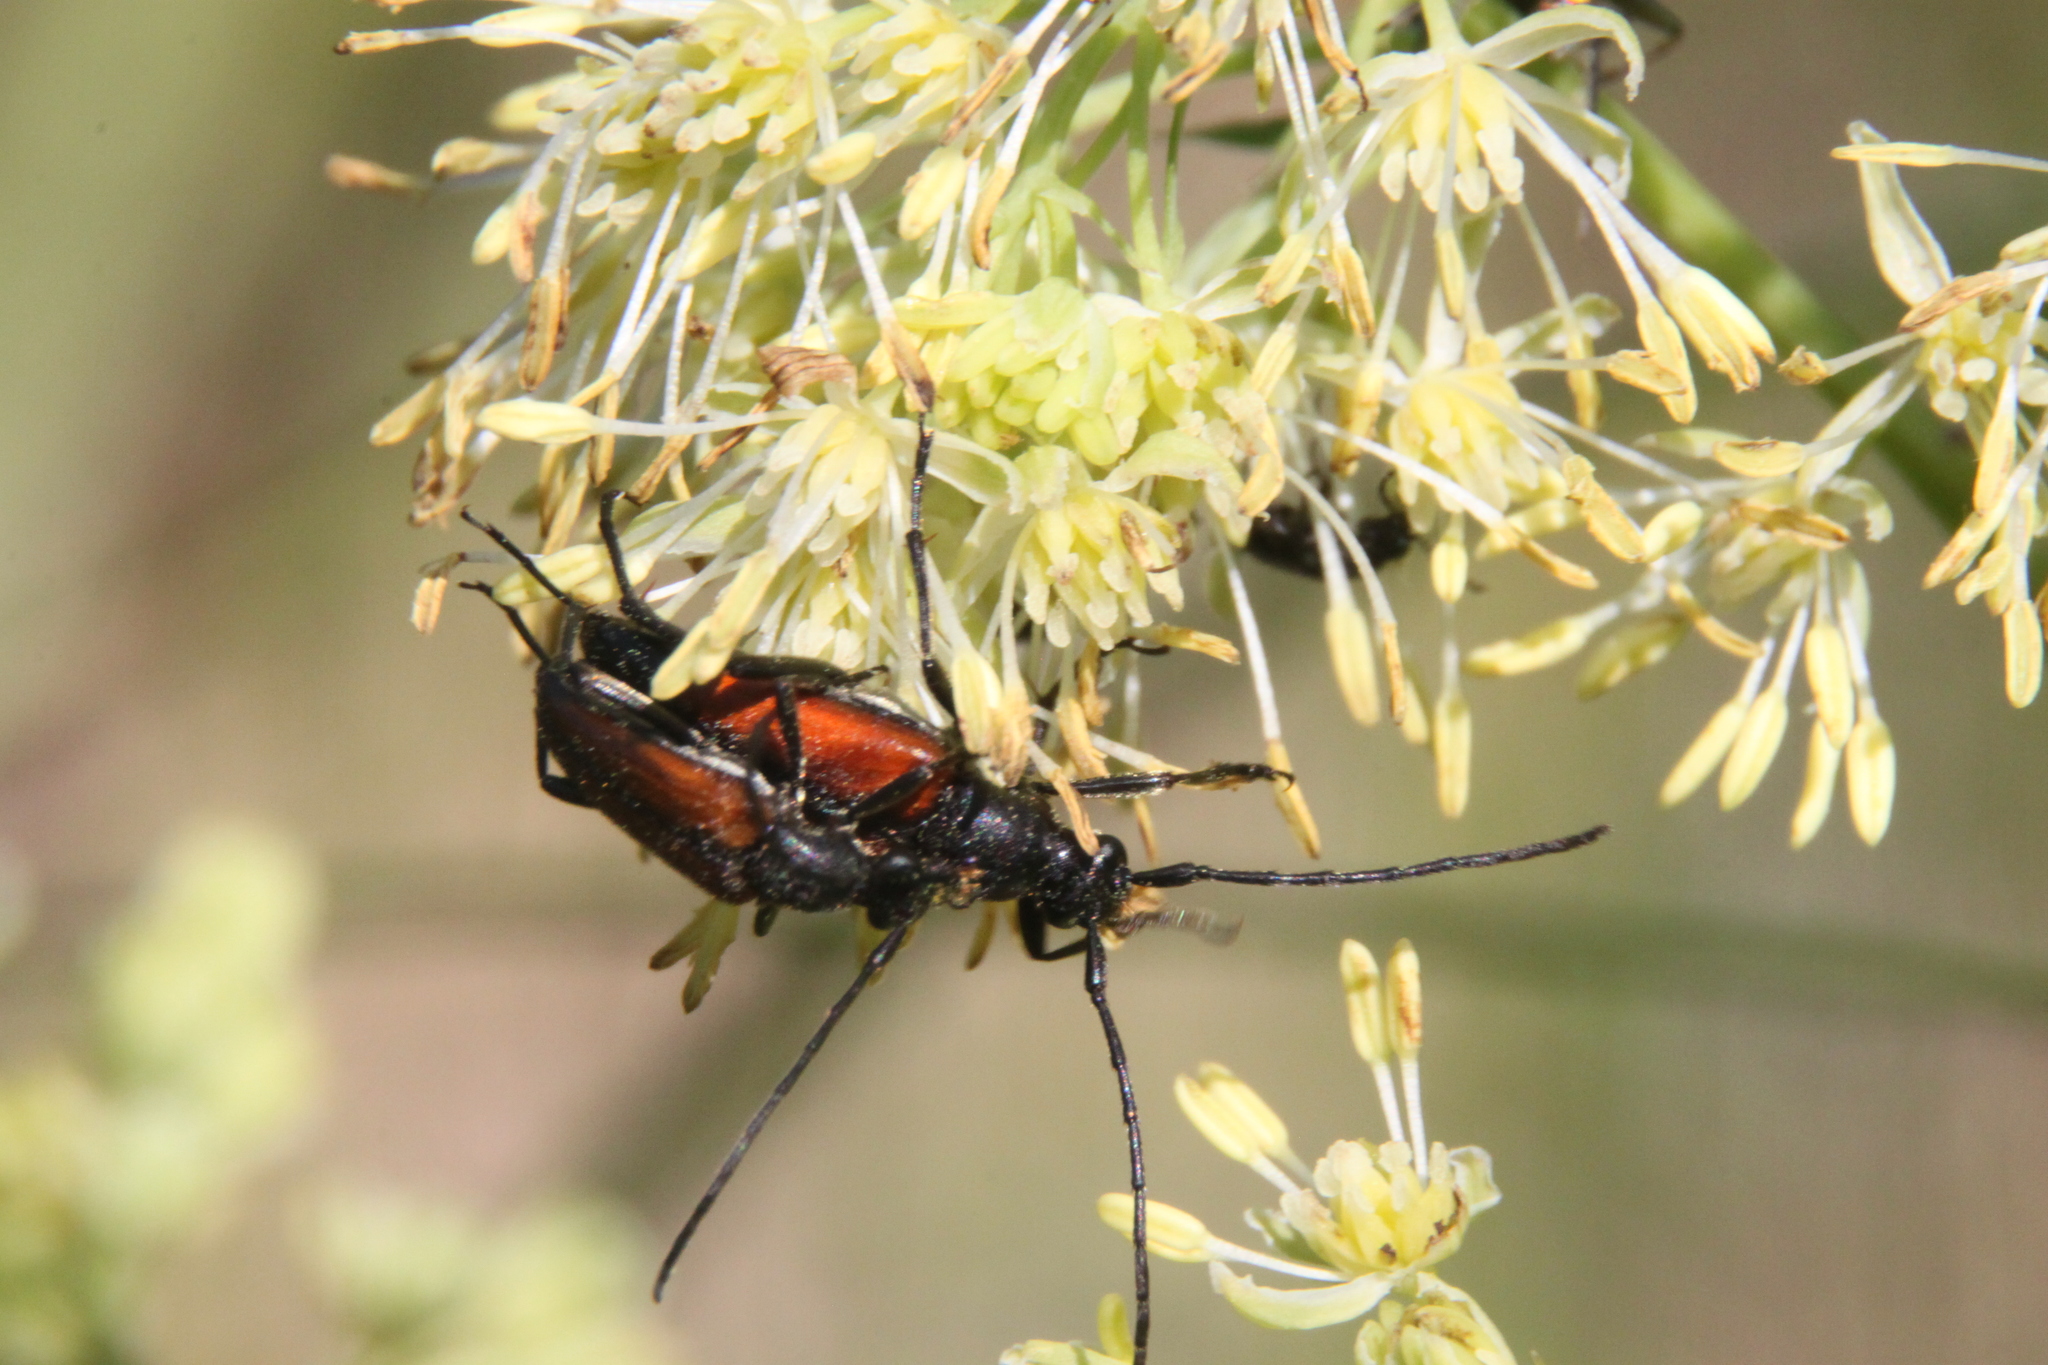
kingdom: Animalia
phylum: Arthropoda
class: Insecta
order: Coleoptera
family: Cerambycidae
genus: Stenurella
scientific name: Stenurella melanura
